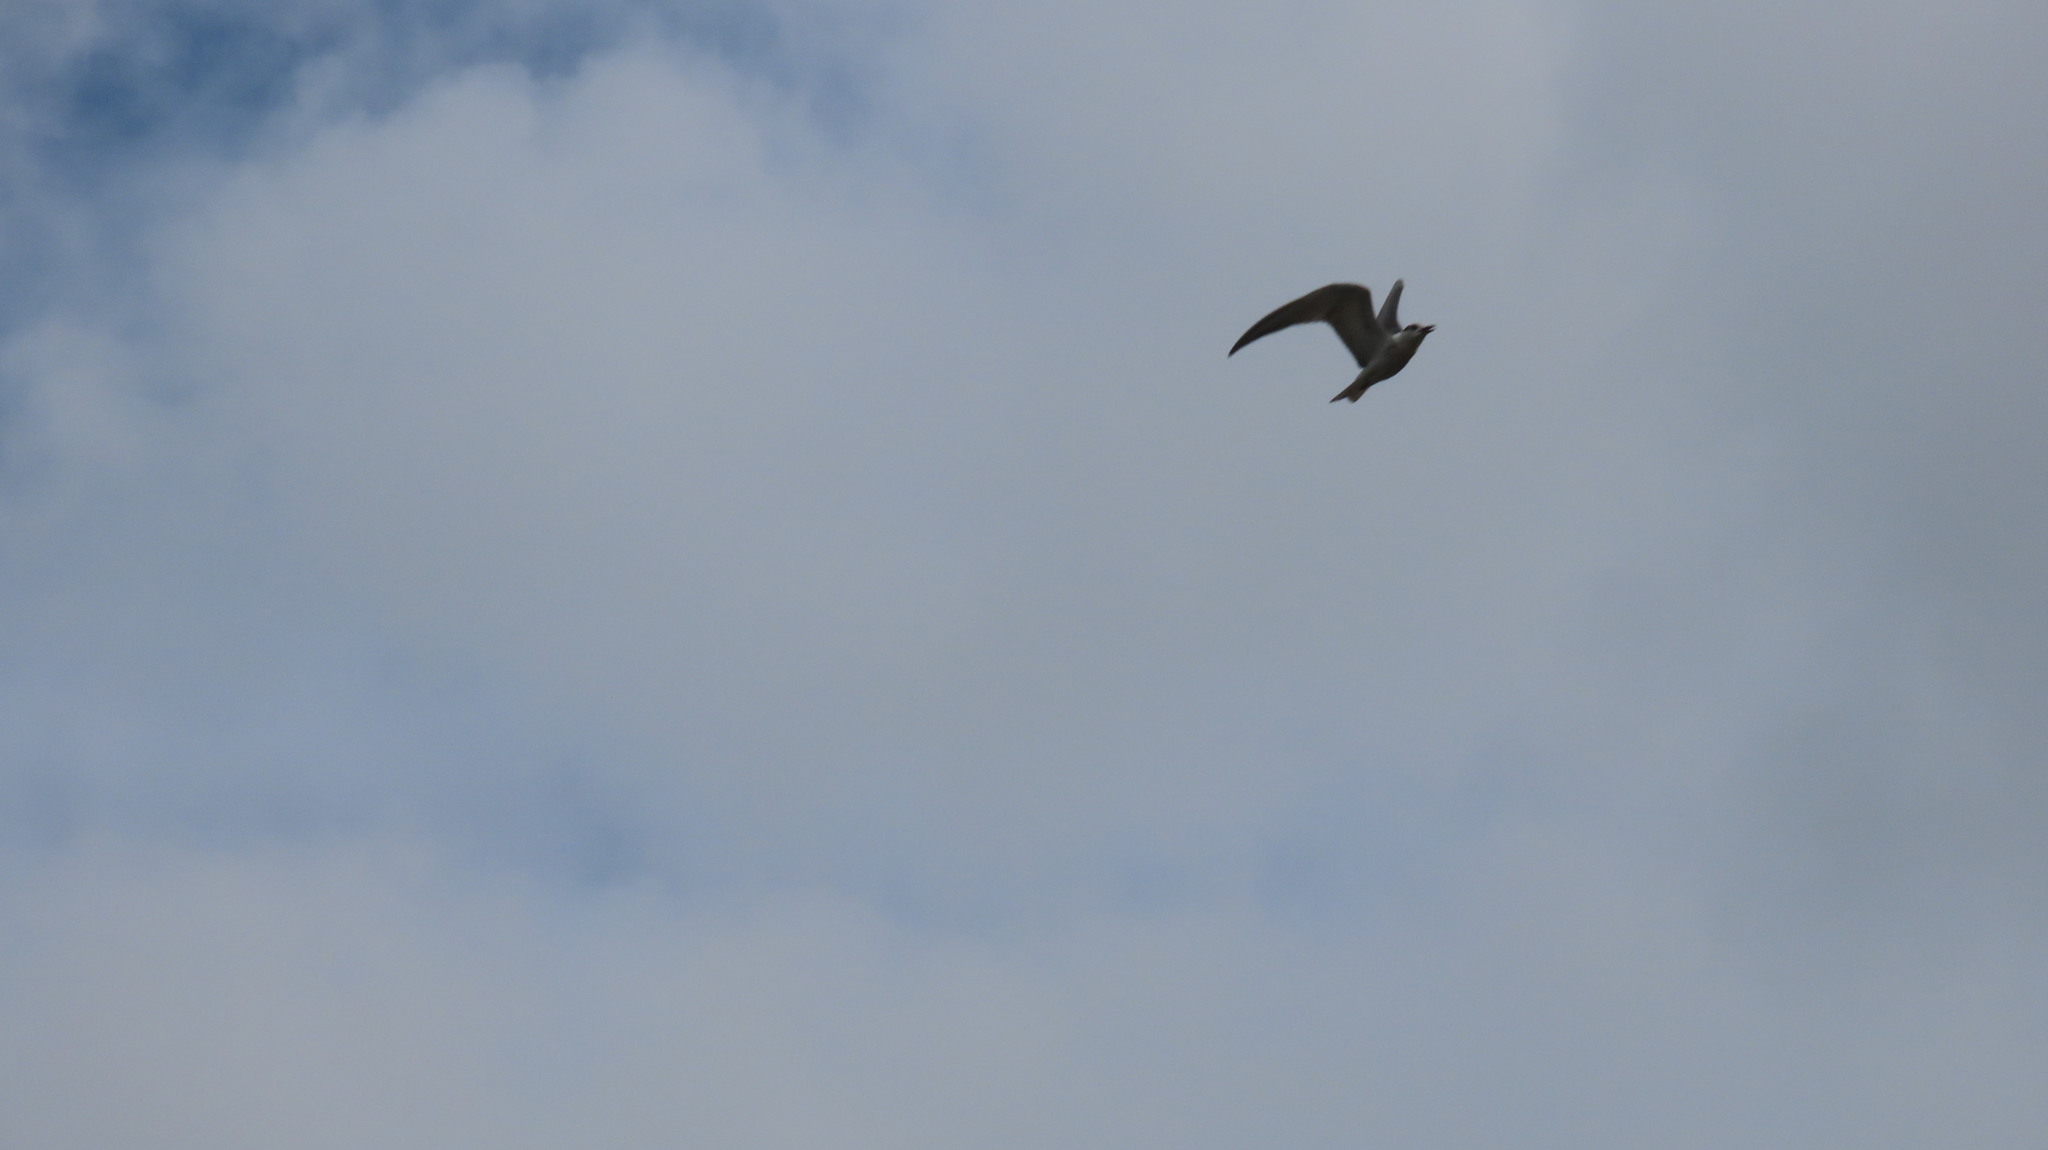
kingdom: Animalia
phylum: Chordata
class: Aves
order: Charadriiformes
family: Laridae
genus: Chlidonias
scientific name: Chlidonias hybrida
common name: Whiskered tern
